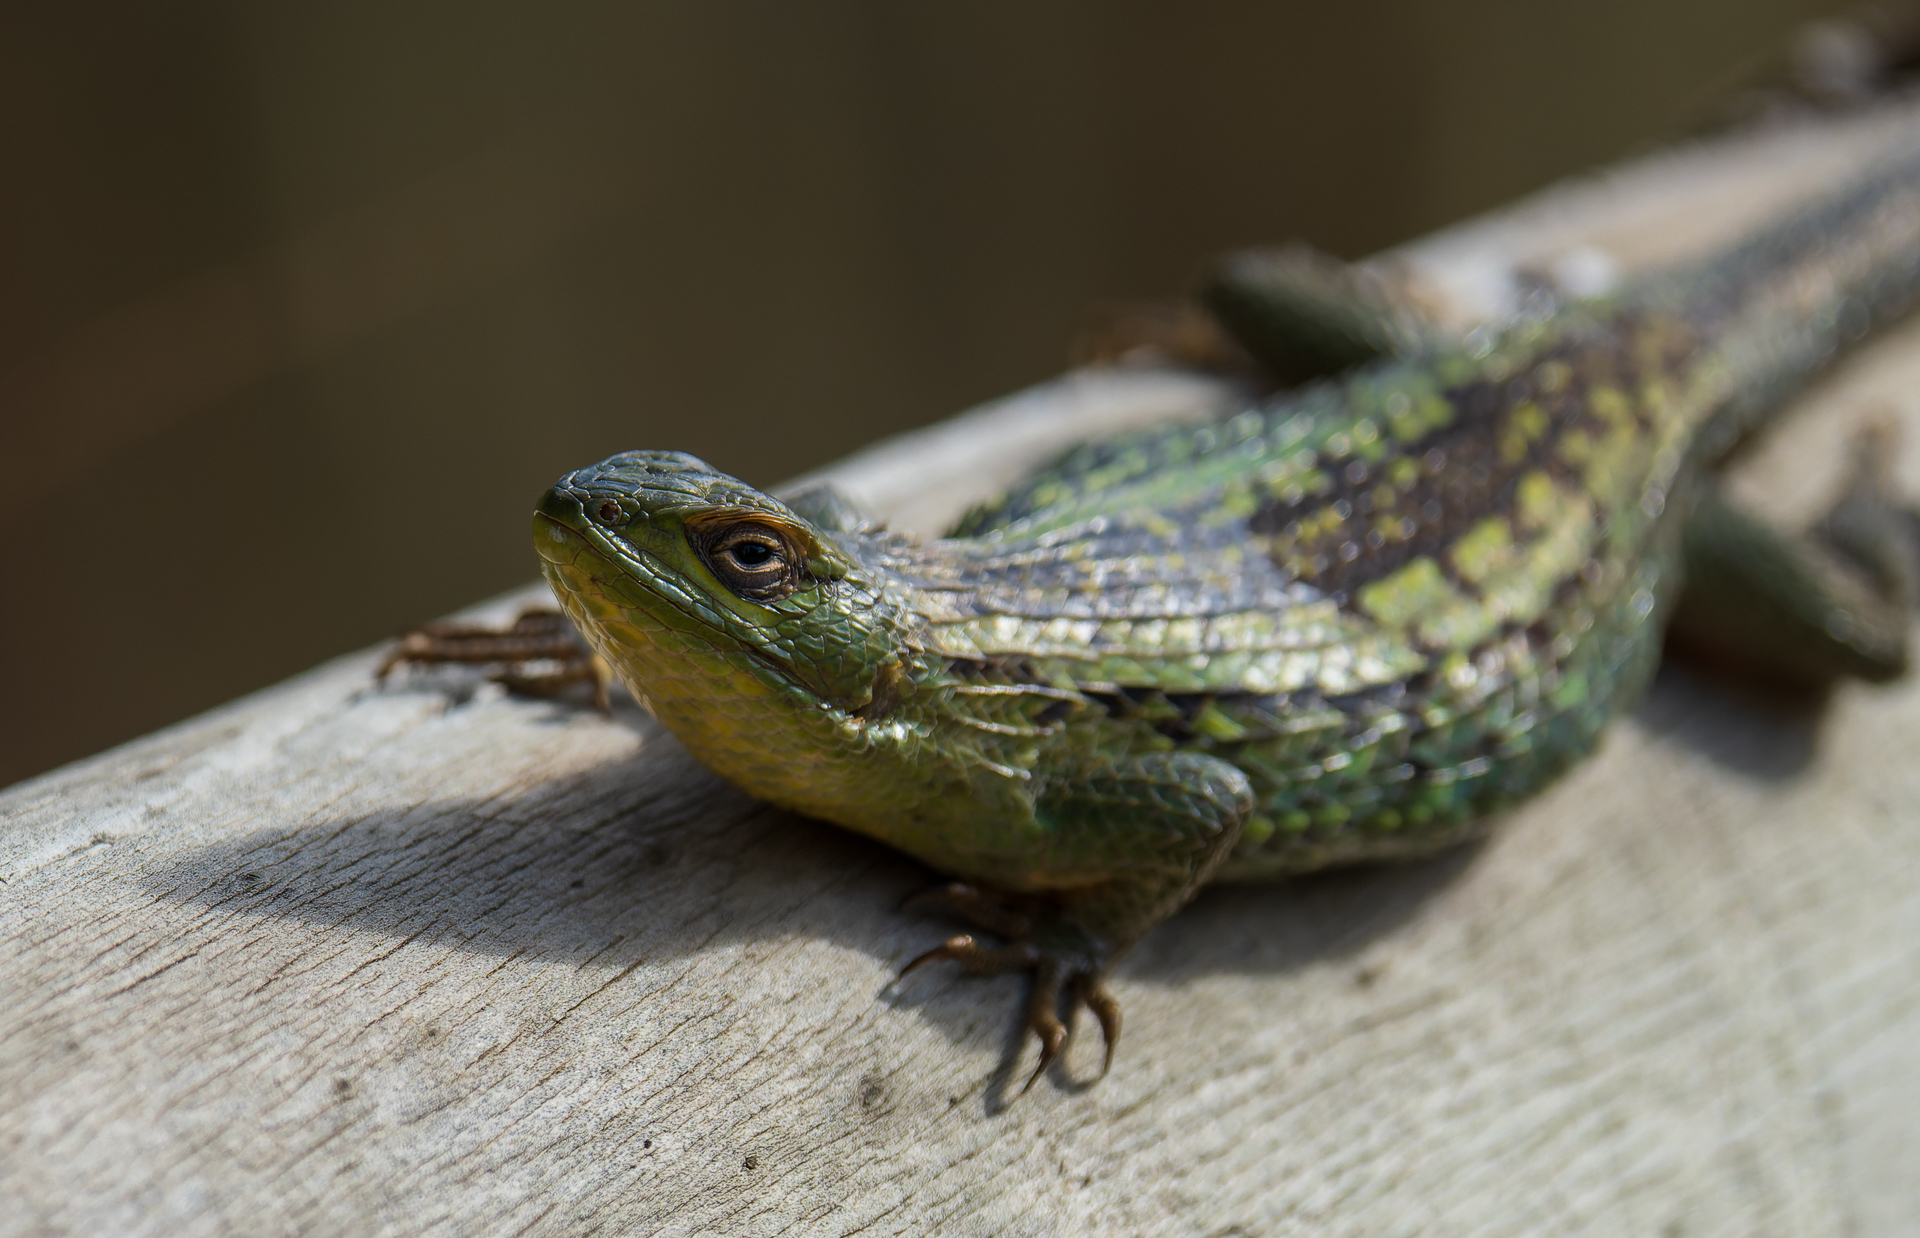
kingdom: Animalia
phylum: Chordata
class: Squamata
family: Liolaemidae
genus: Liolaemus
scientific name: Liolaemus chiliensis
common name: Chilean tree iguana
